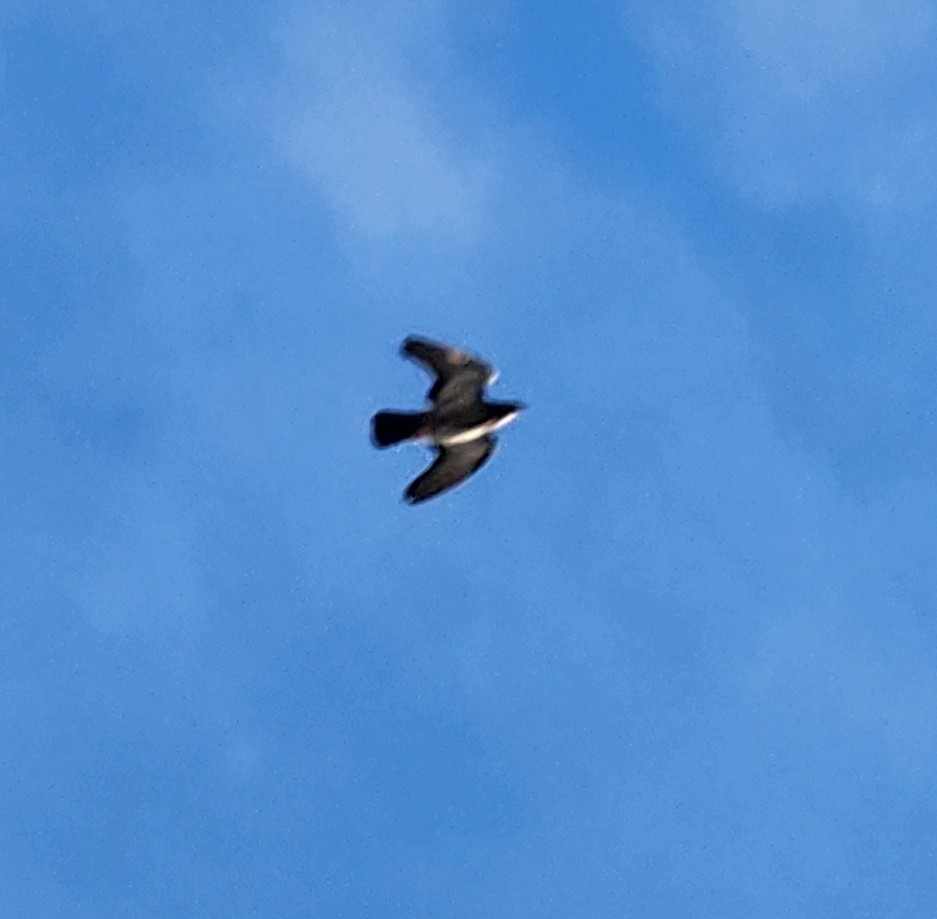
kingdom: Animalia
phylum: Chordata
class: Aves
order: Columbiformes
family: Columbidae
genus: Columba
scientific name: Columba livia
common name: Rock pigeon
